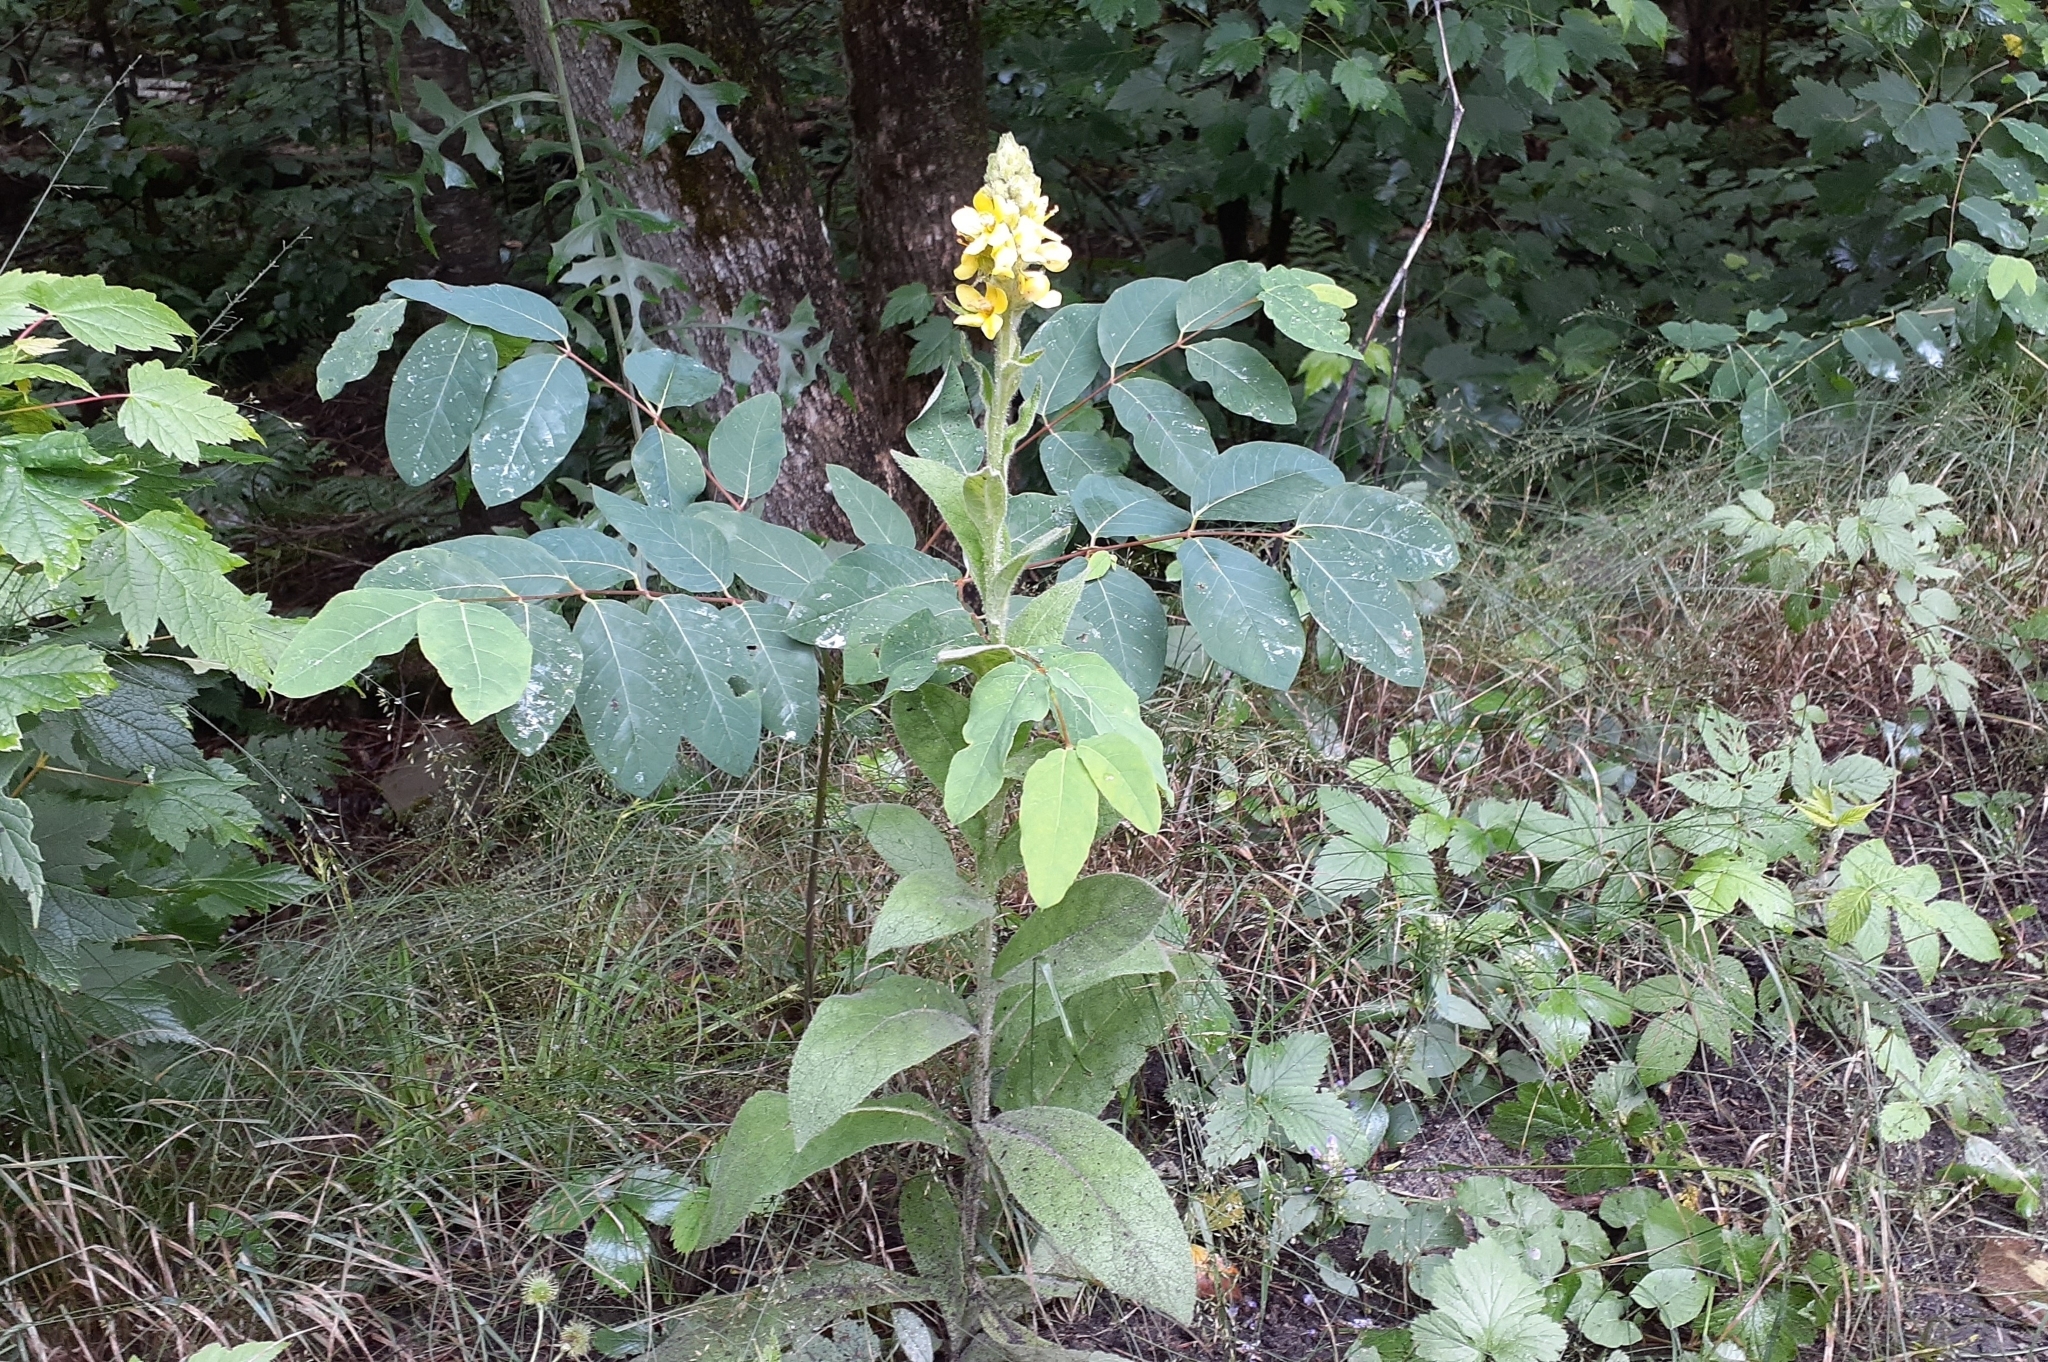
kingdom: Plantae
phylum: Tracheophyta
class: Magnoliopsida
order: Lamiales
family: Scrophulariaceae
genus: Verbascum
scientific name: Verbascum thapsus
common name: Common mullein
